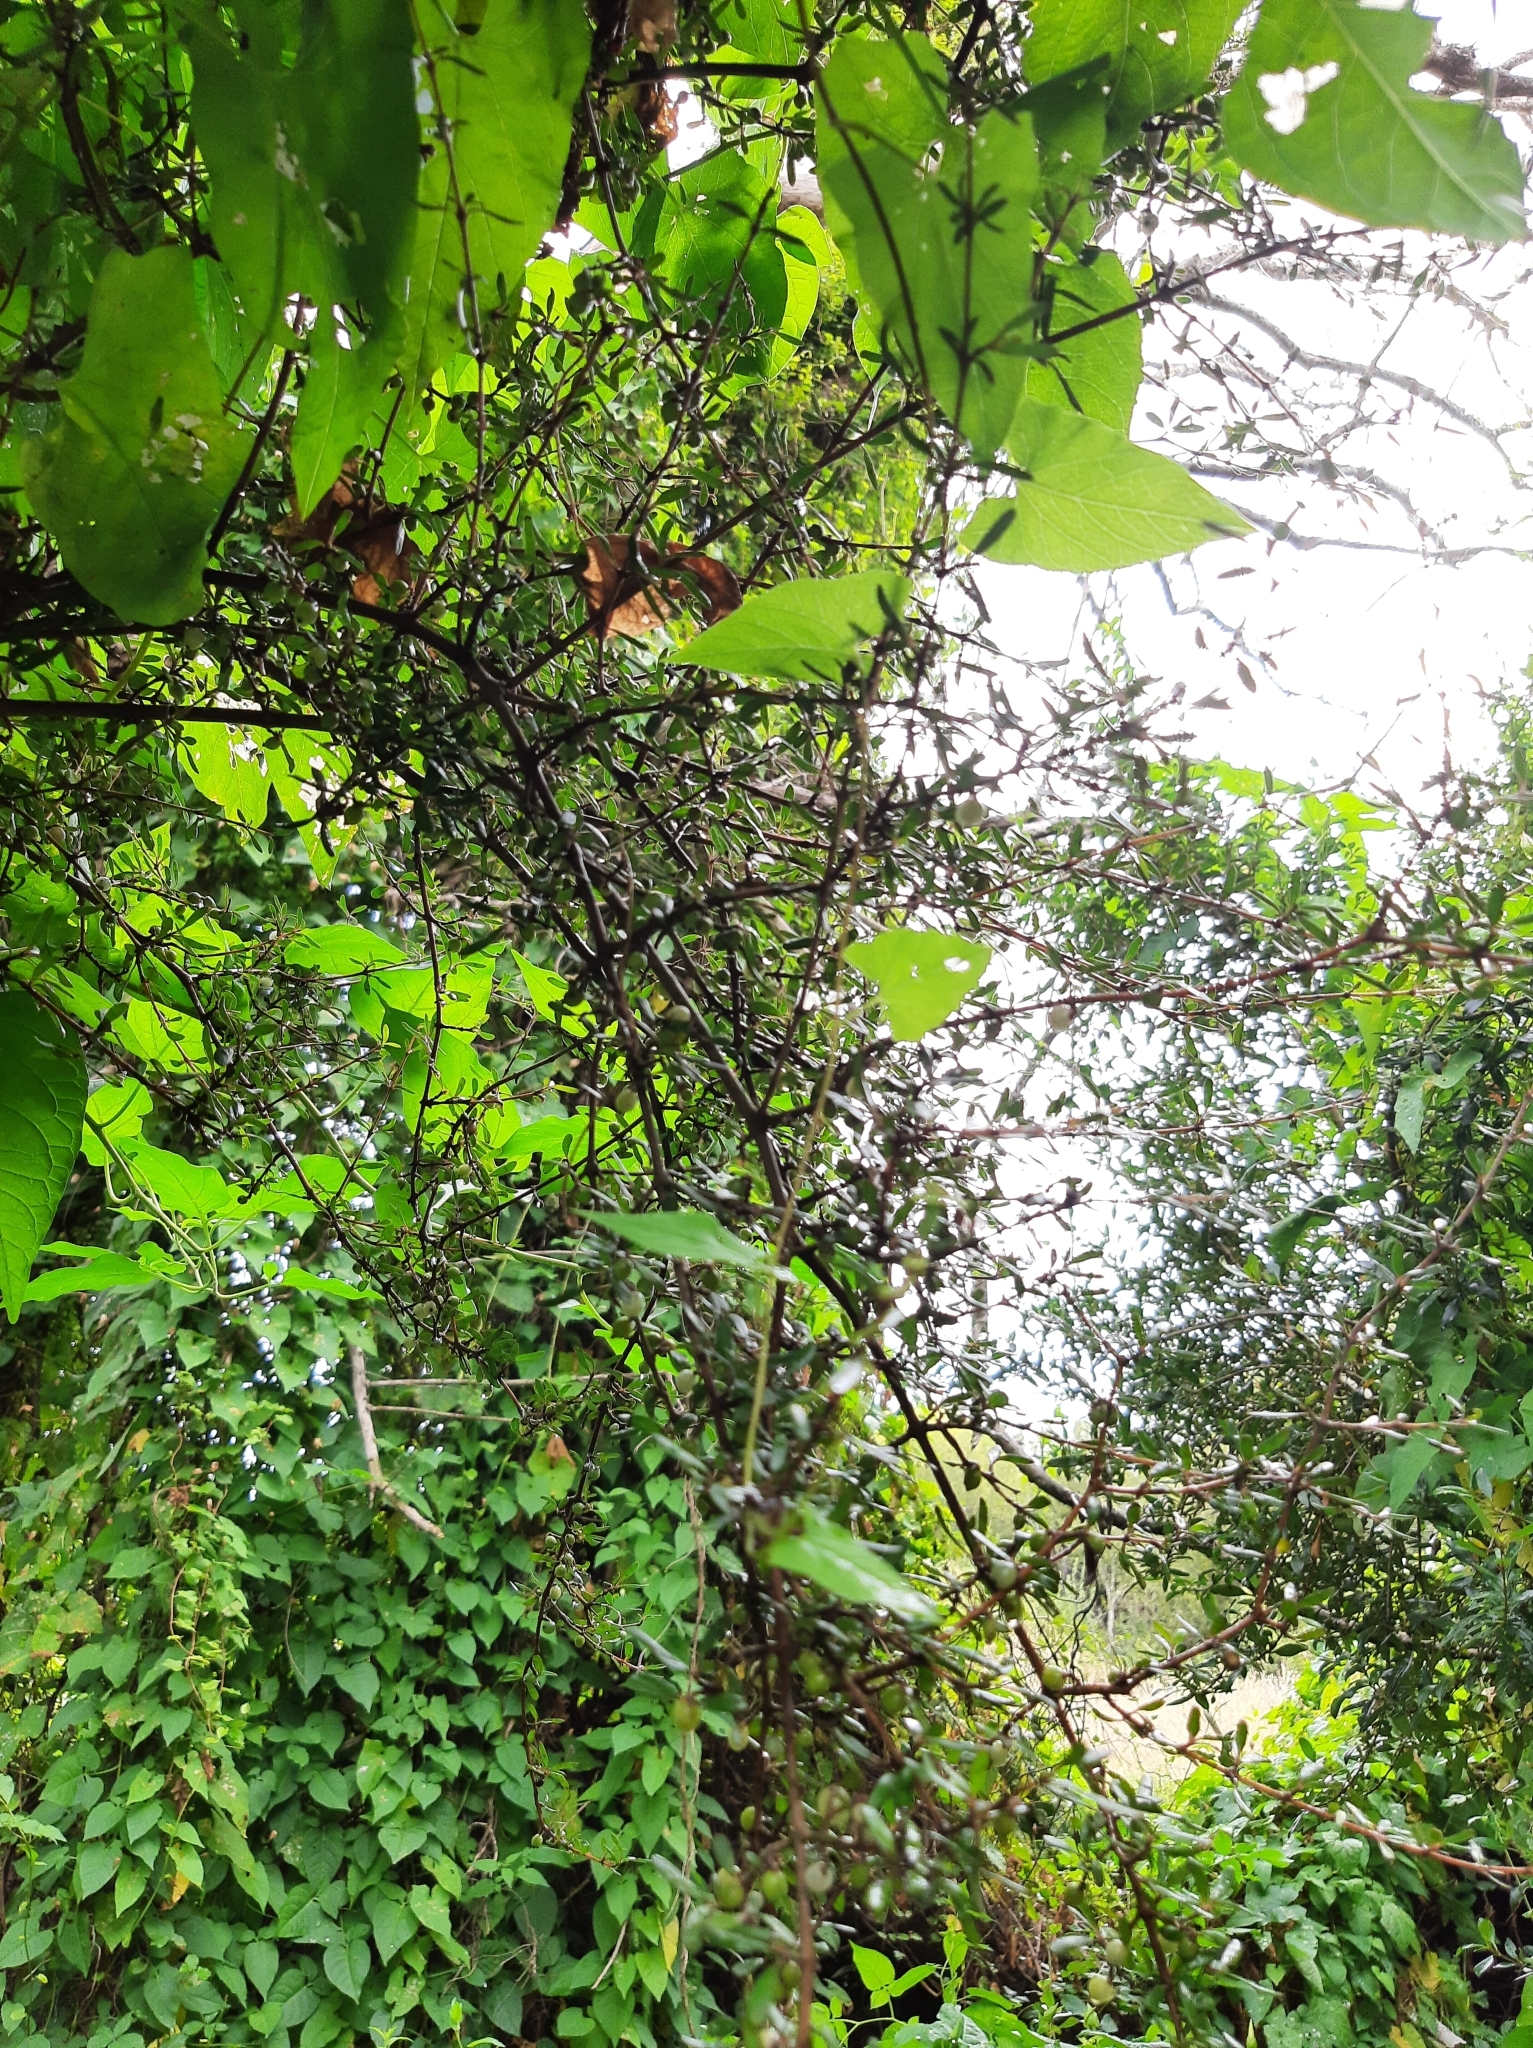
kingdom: Plantae
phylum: Tracheophyta
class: Magnoliopsida
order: Gentianales
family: Rubiaceae
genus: Coprosma
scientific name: Coprosma propinqua
